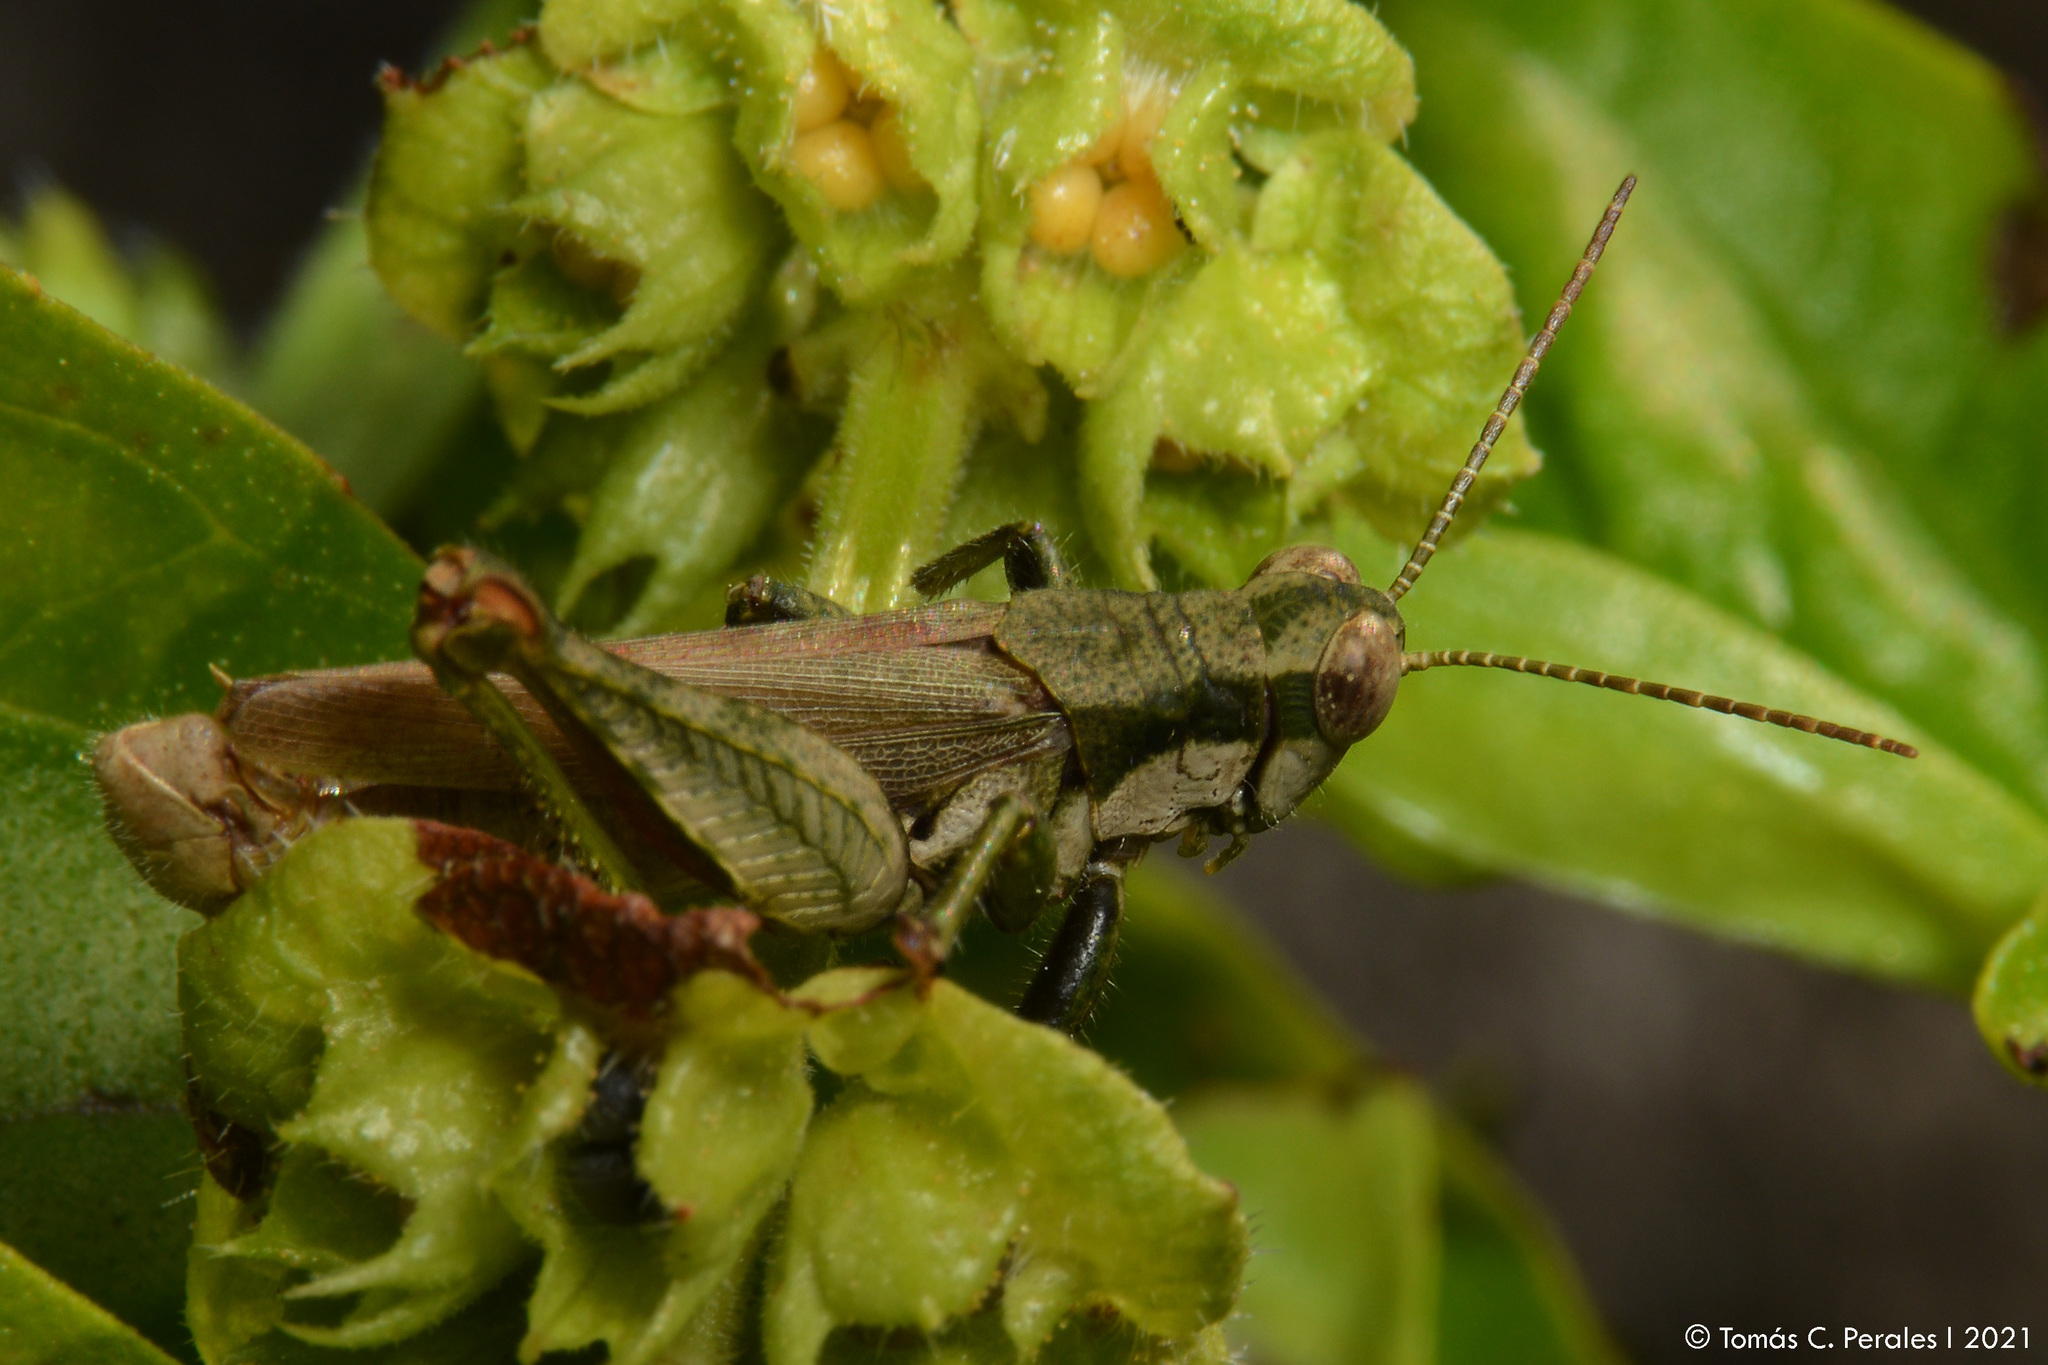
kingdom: Animalia
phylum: Arthropoda
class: Insecta
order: Orthoptera
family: Acrididae
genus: Ronderosia
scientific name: Ronderosia bergii
